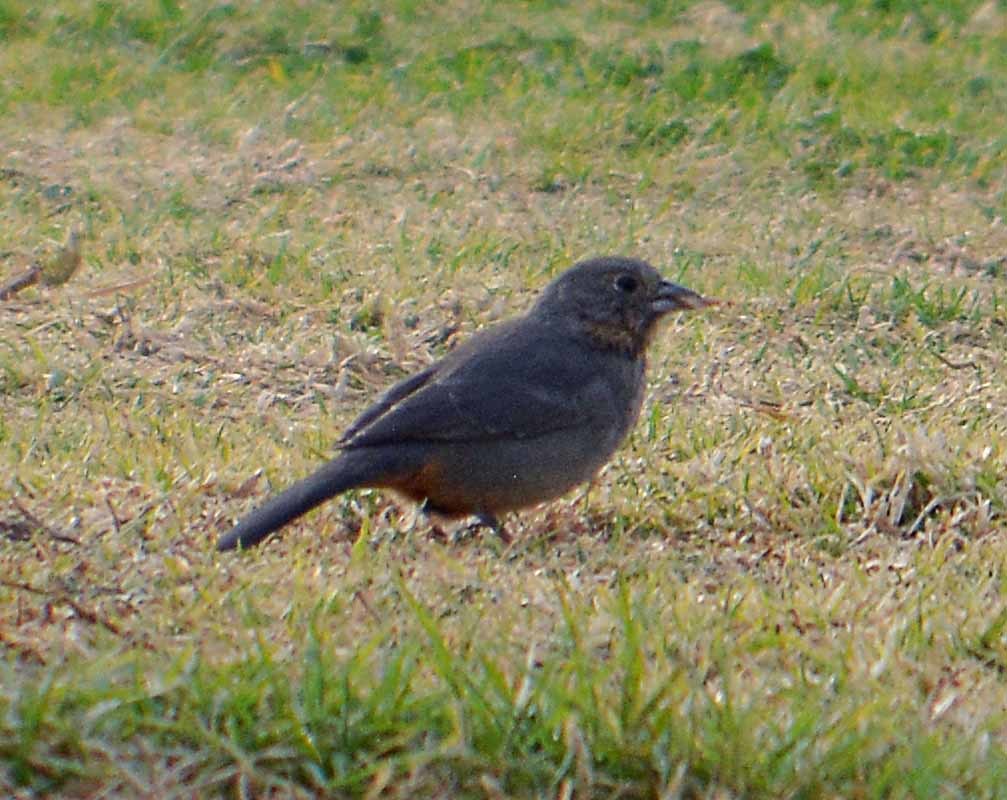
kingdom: Animalia
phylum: Chordata
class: Aves
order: Passeriformes
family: Passerellidae
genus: Melozone
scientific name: Melozone fusca
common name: Canyon towhee
